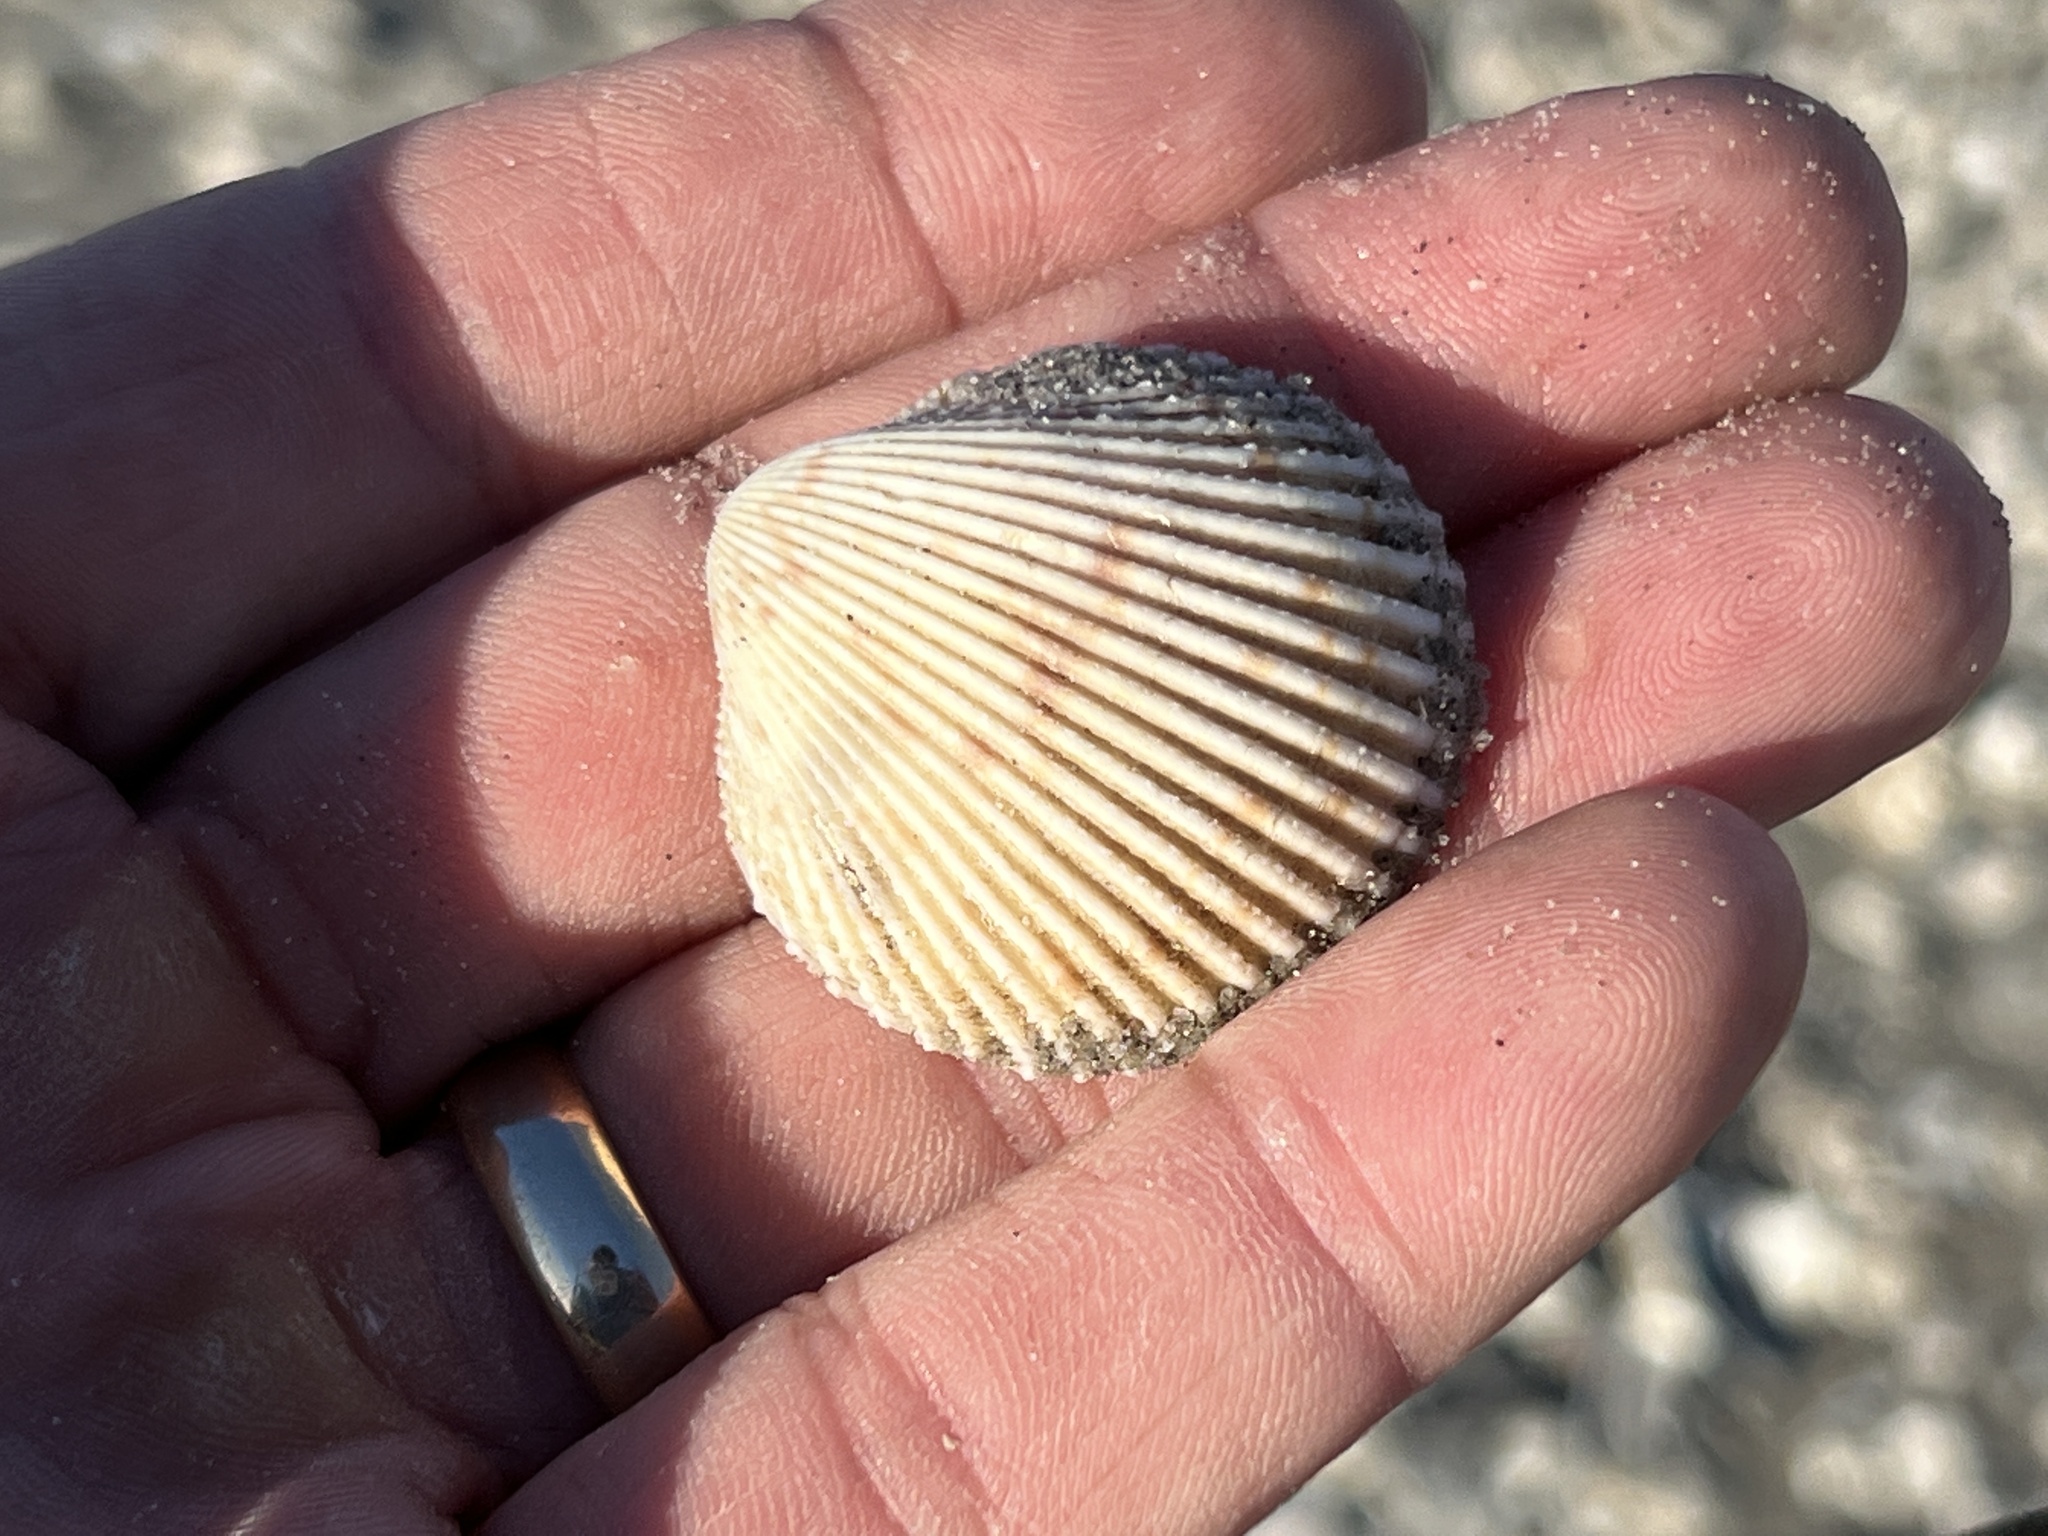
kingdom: Animalia
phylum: Mollusca
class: Bivalvia
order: Cardiida
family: Cardiidae
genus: Dallocardia
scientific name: Dallocardia muricata
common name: Yellow pricklycockle
